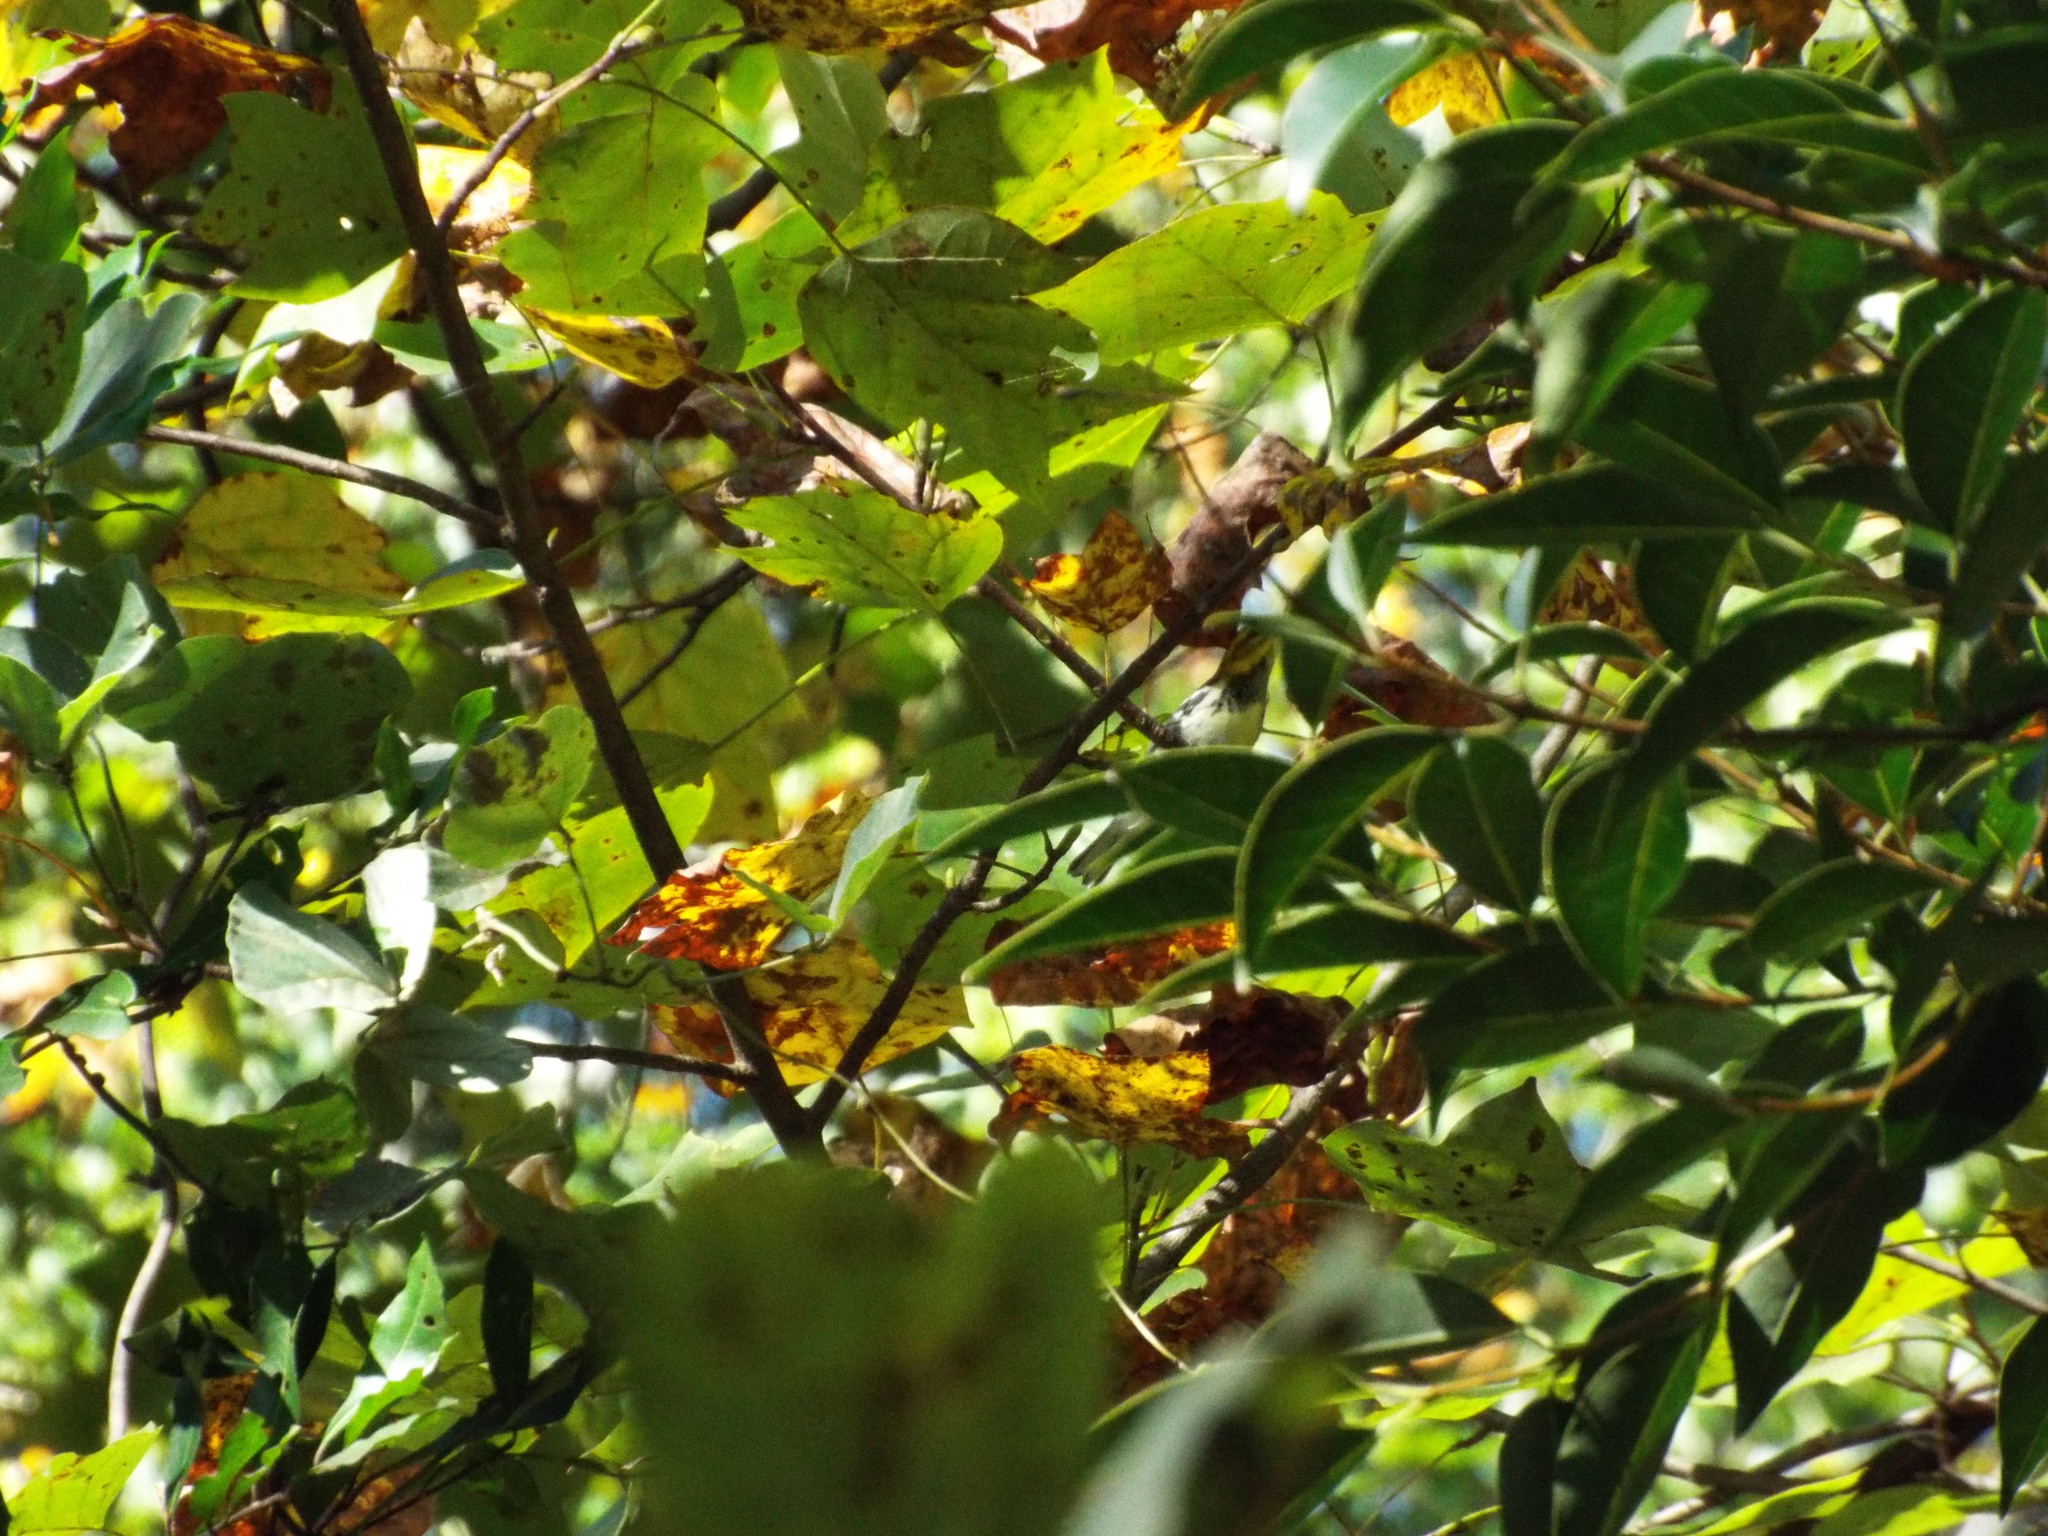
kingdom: Animalia
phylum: Chordata
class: Aves
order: Passeriformes
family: Parulidae
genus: Setophaga
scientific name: Setophaga virens
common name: Black-throated green warbler
